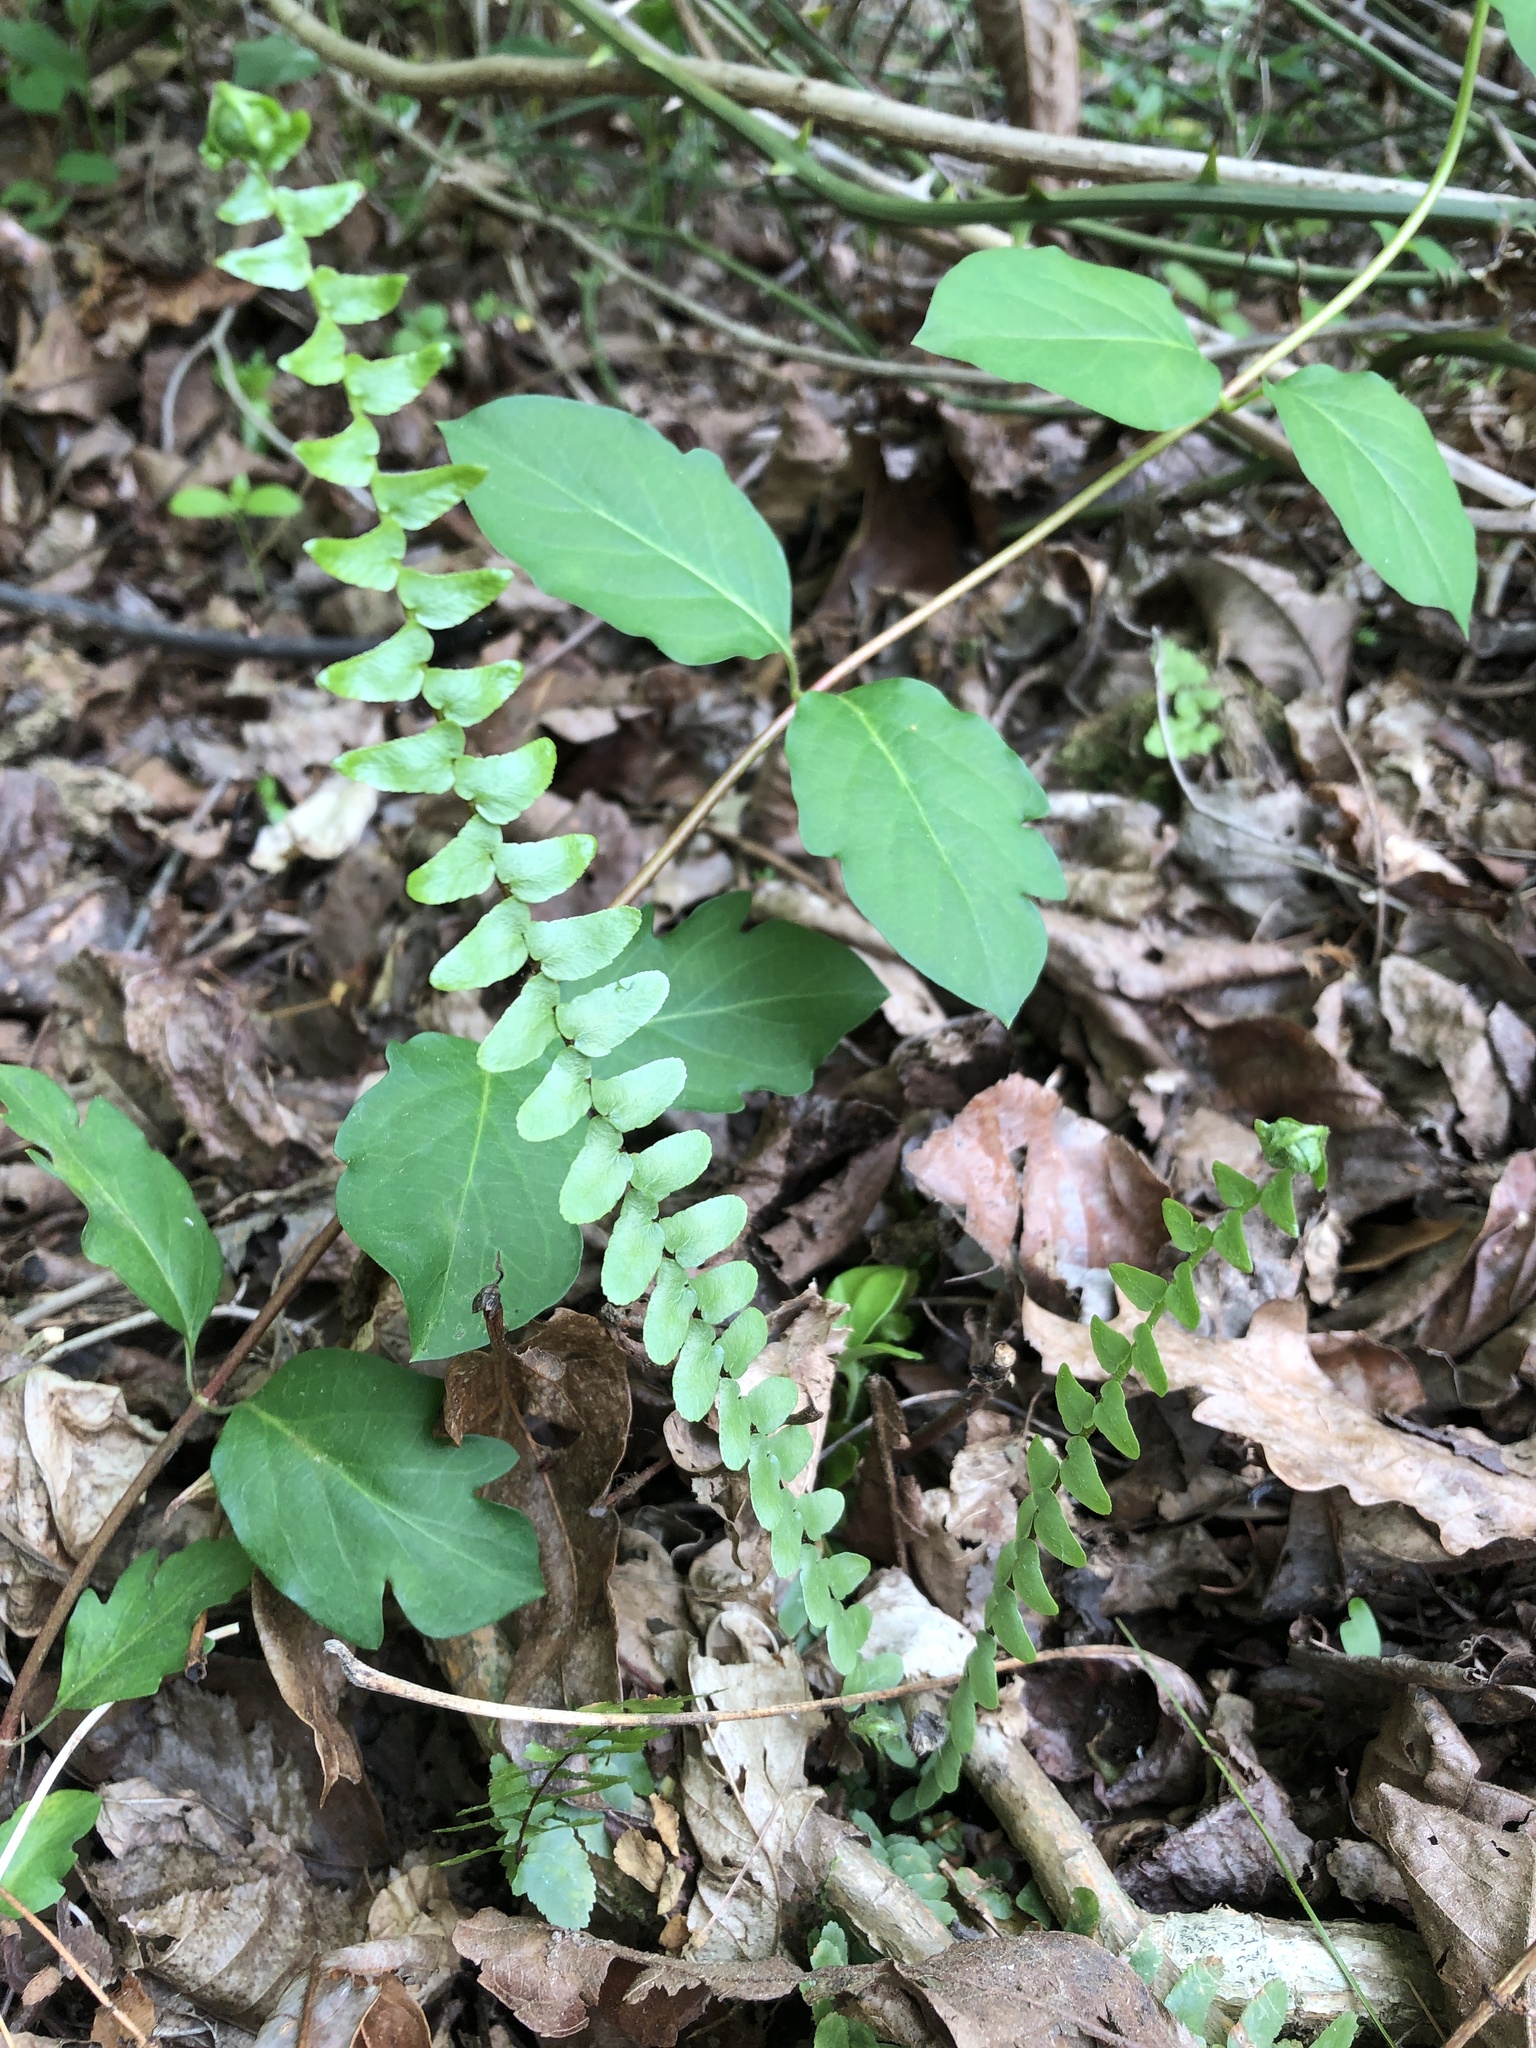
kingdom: Plantae
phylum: Tracheophyta
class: Polypodiopsida
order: Polypodiales
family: Aspleniaceae
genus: Asplenium
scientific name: Asplenium platyneuron
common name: Ebony spleenwort
